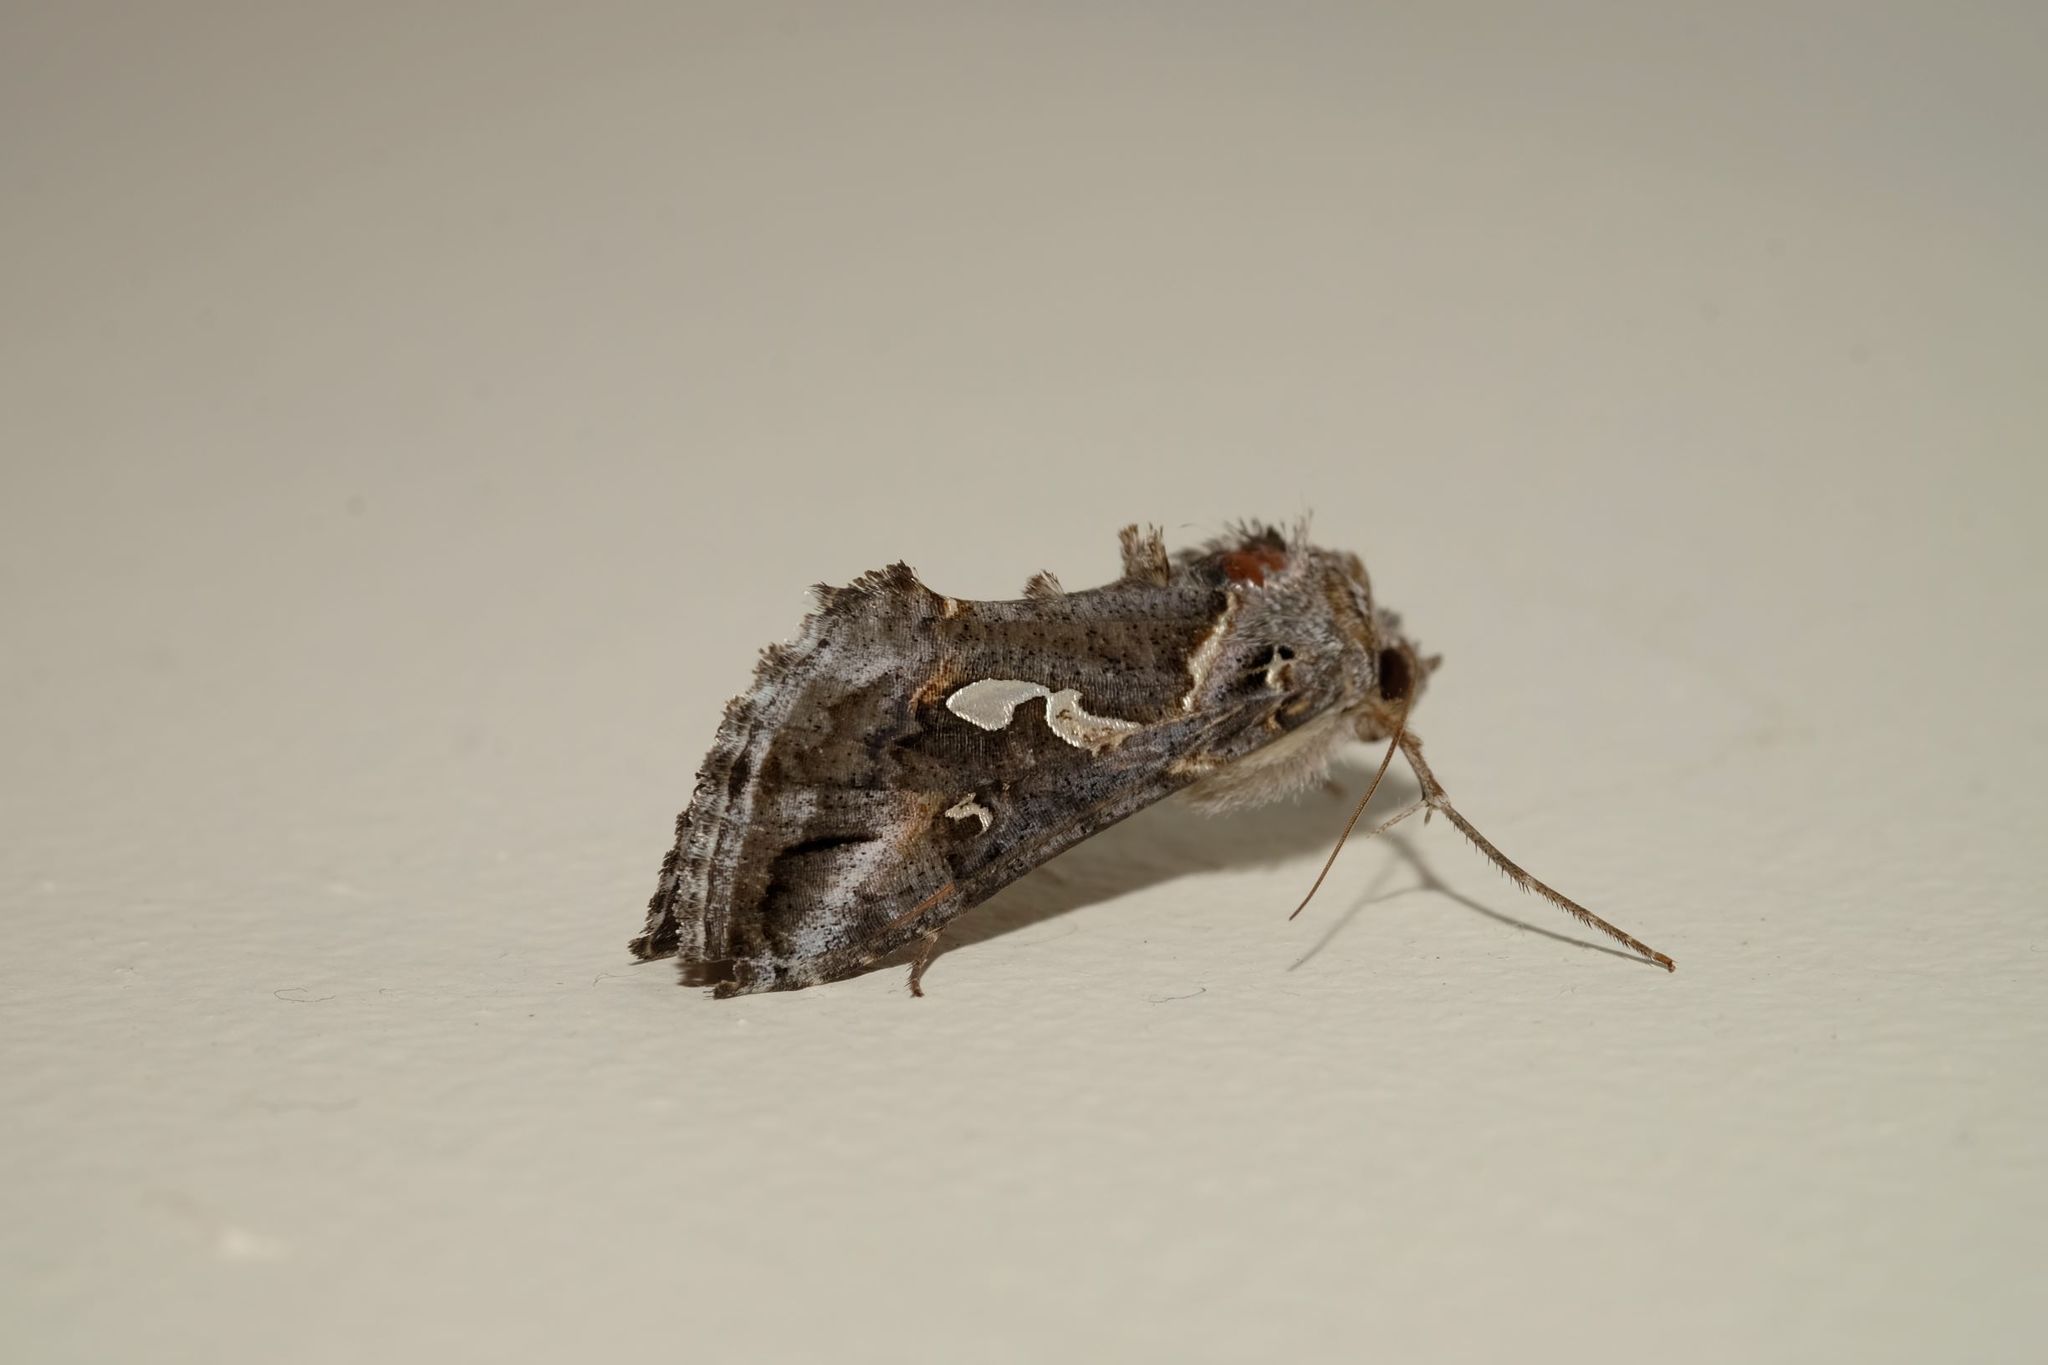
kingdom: Animalia
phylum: Arthropoda
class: Insecta
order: Lepidoptera
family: Noctuidae
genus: Chrysodeixis
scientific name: Chrysodeixis argentifera
